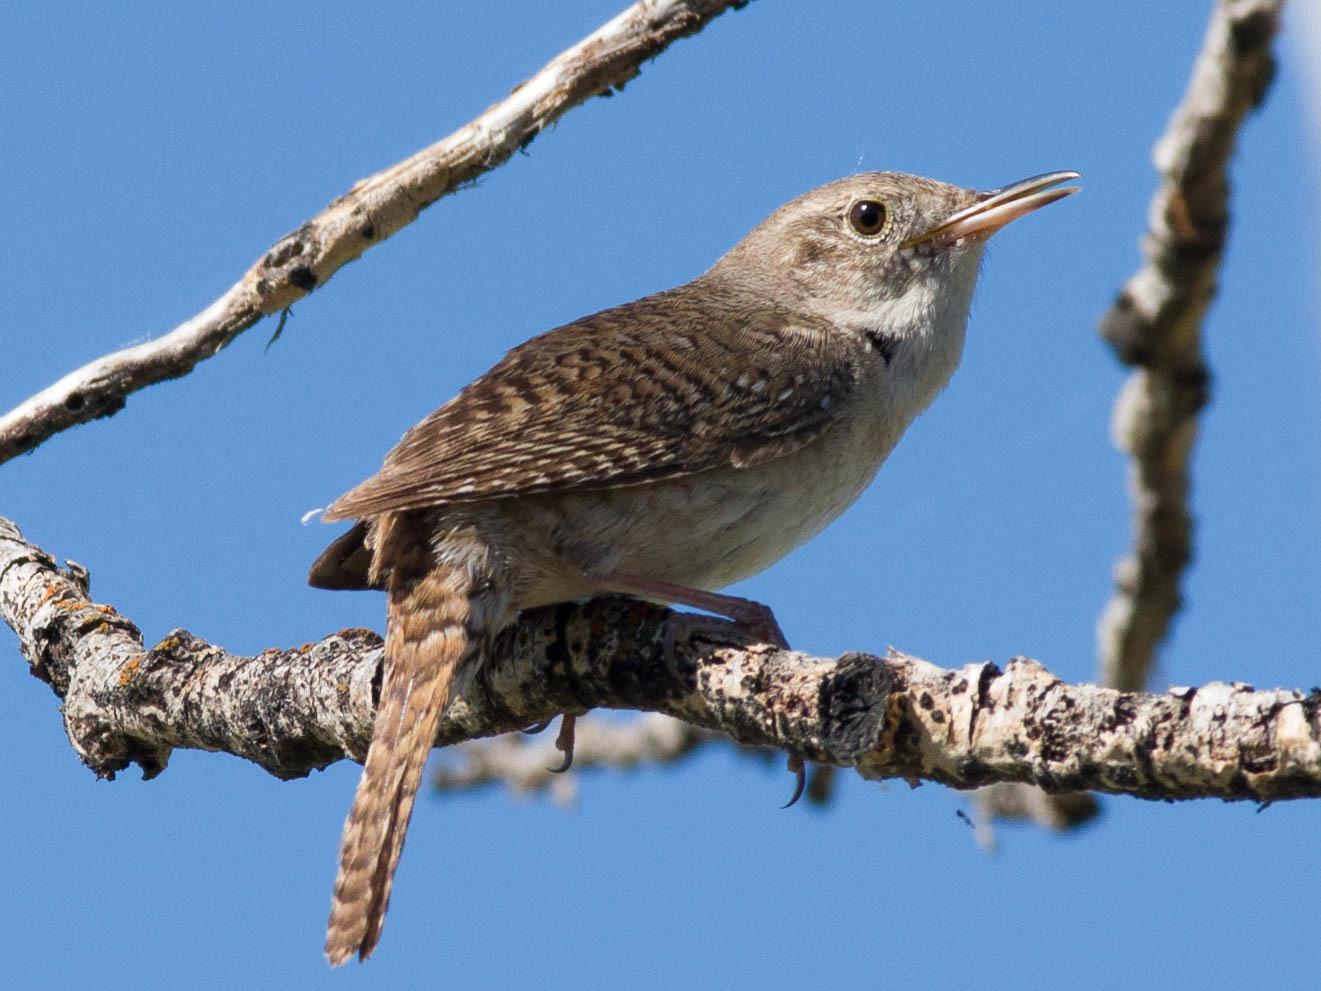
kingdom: Animalia
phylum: Chordata
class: Aves
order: Passeriformes
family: Troglodytidae
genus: Troglodytes
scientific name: Troglodytes aedon
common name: House wren
